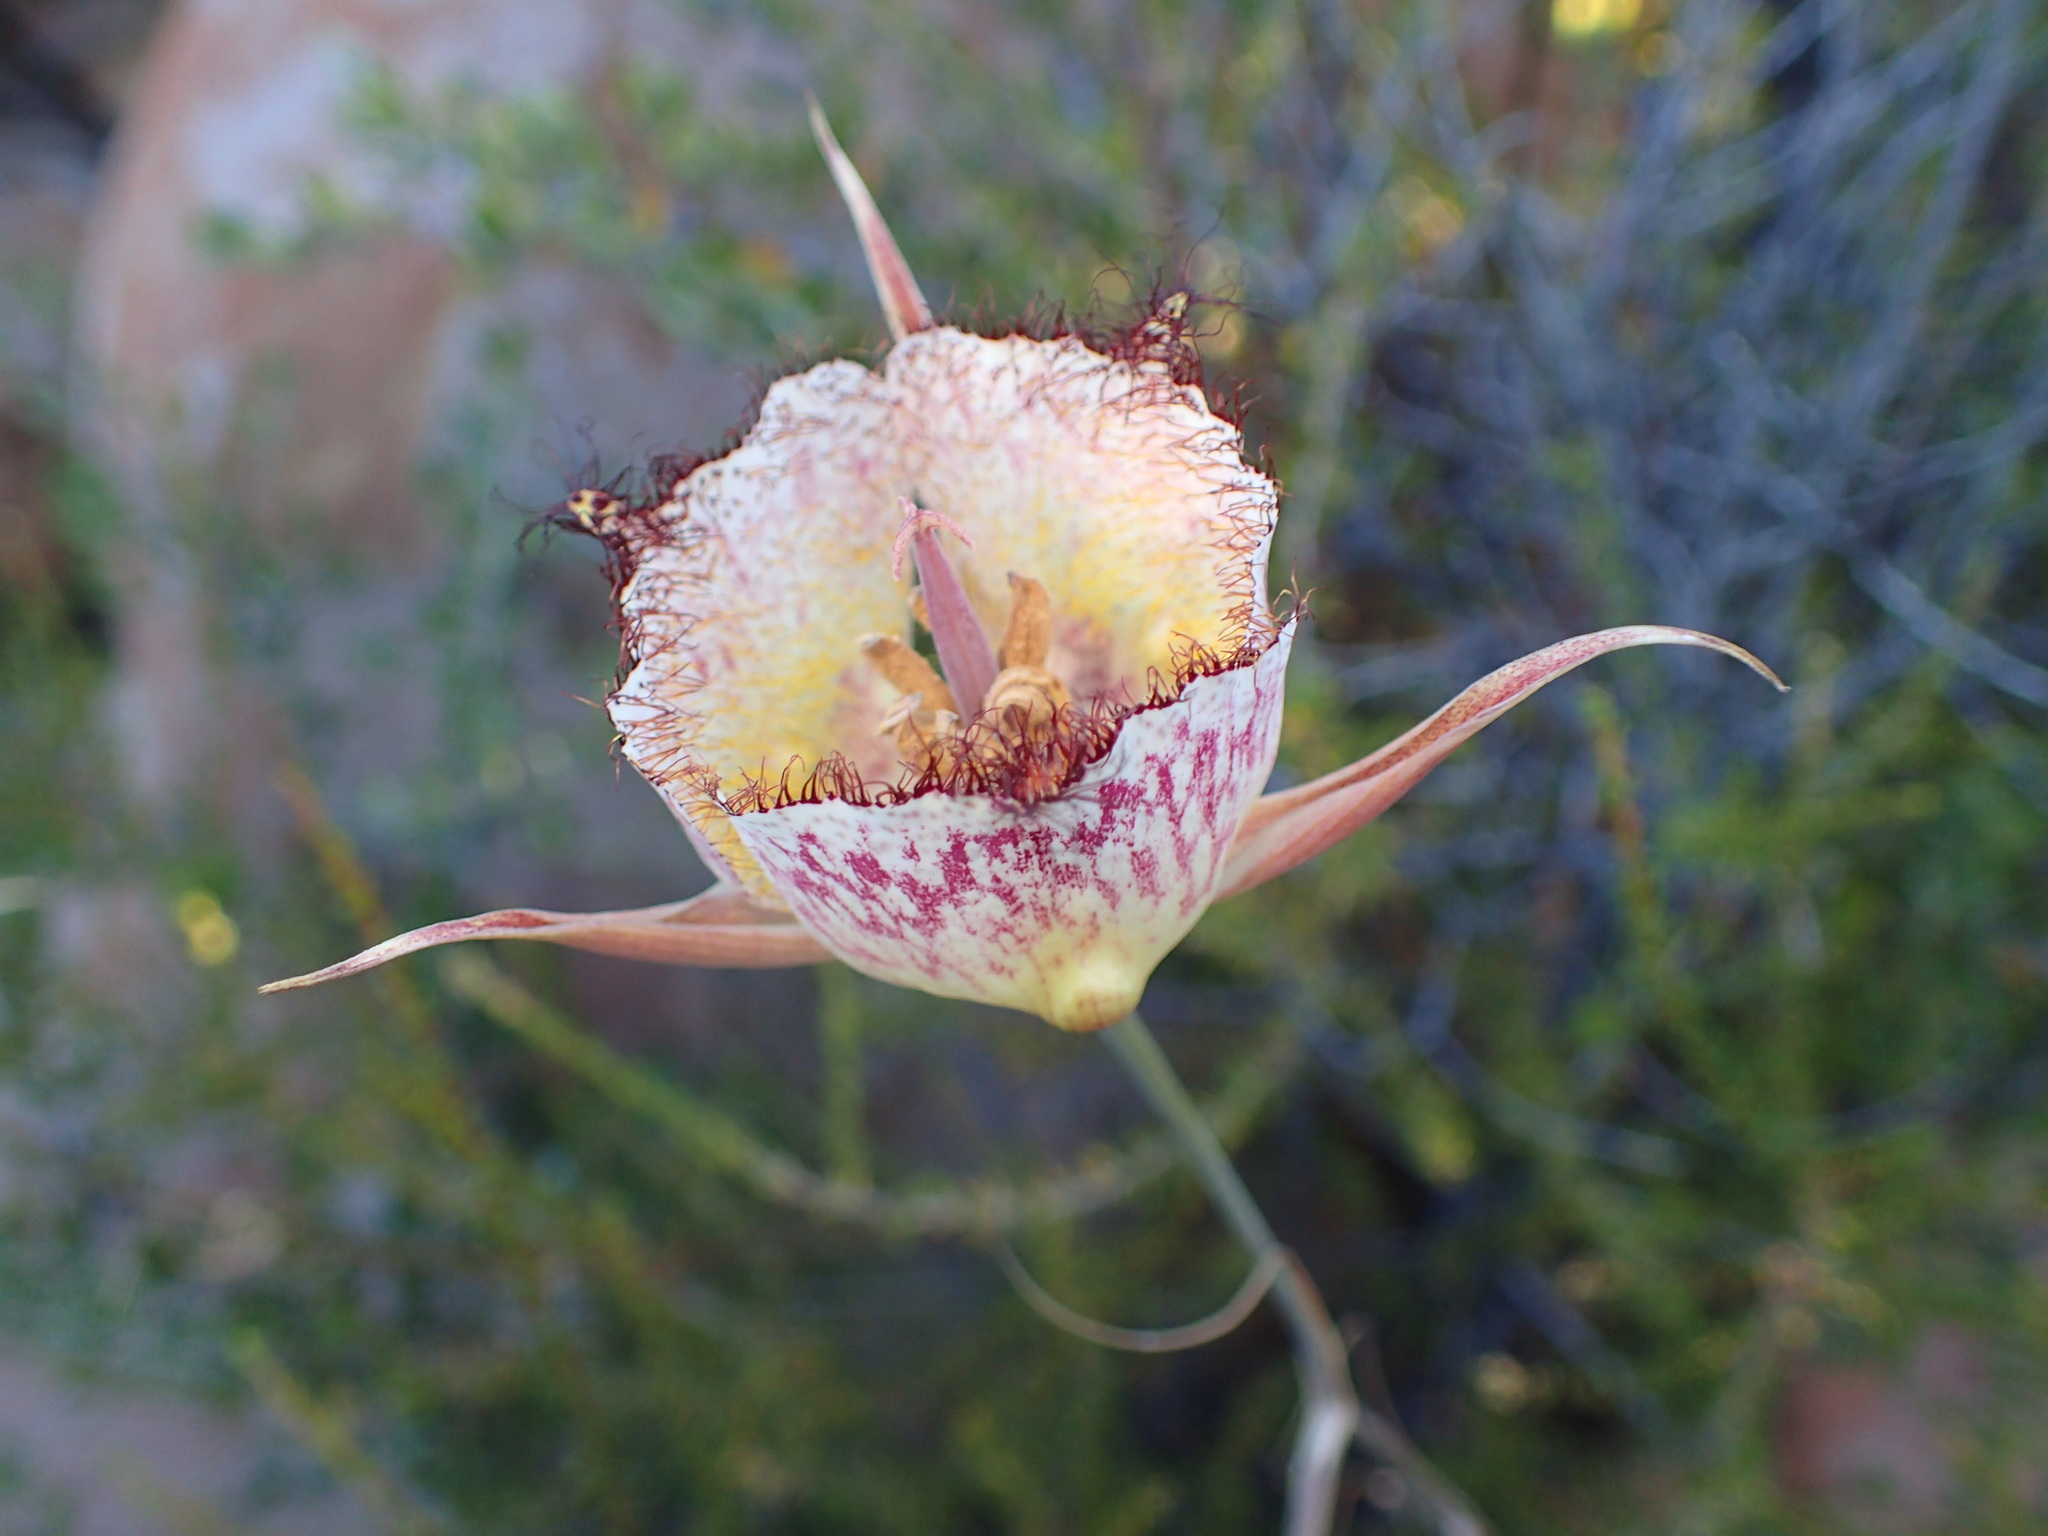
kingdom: Plantae
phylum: Tracheophyta
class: Liliopsida
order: Liliales
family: Liliaceae
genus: Calochortus
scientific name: Calochortus fimbriatus
